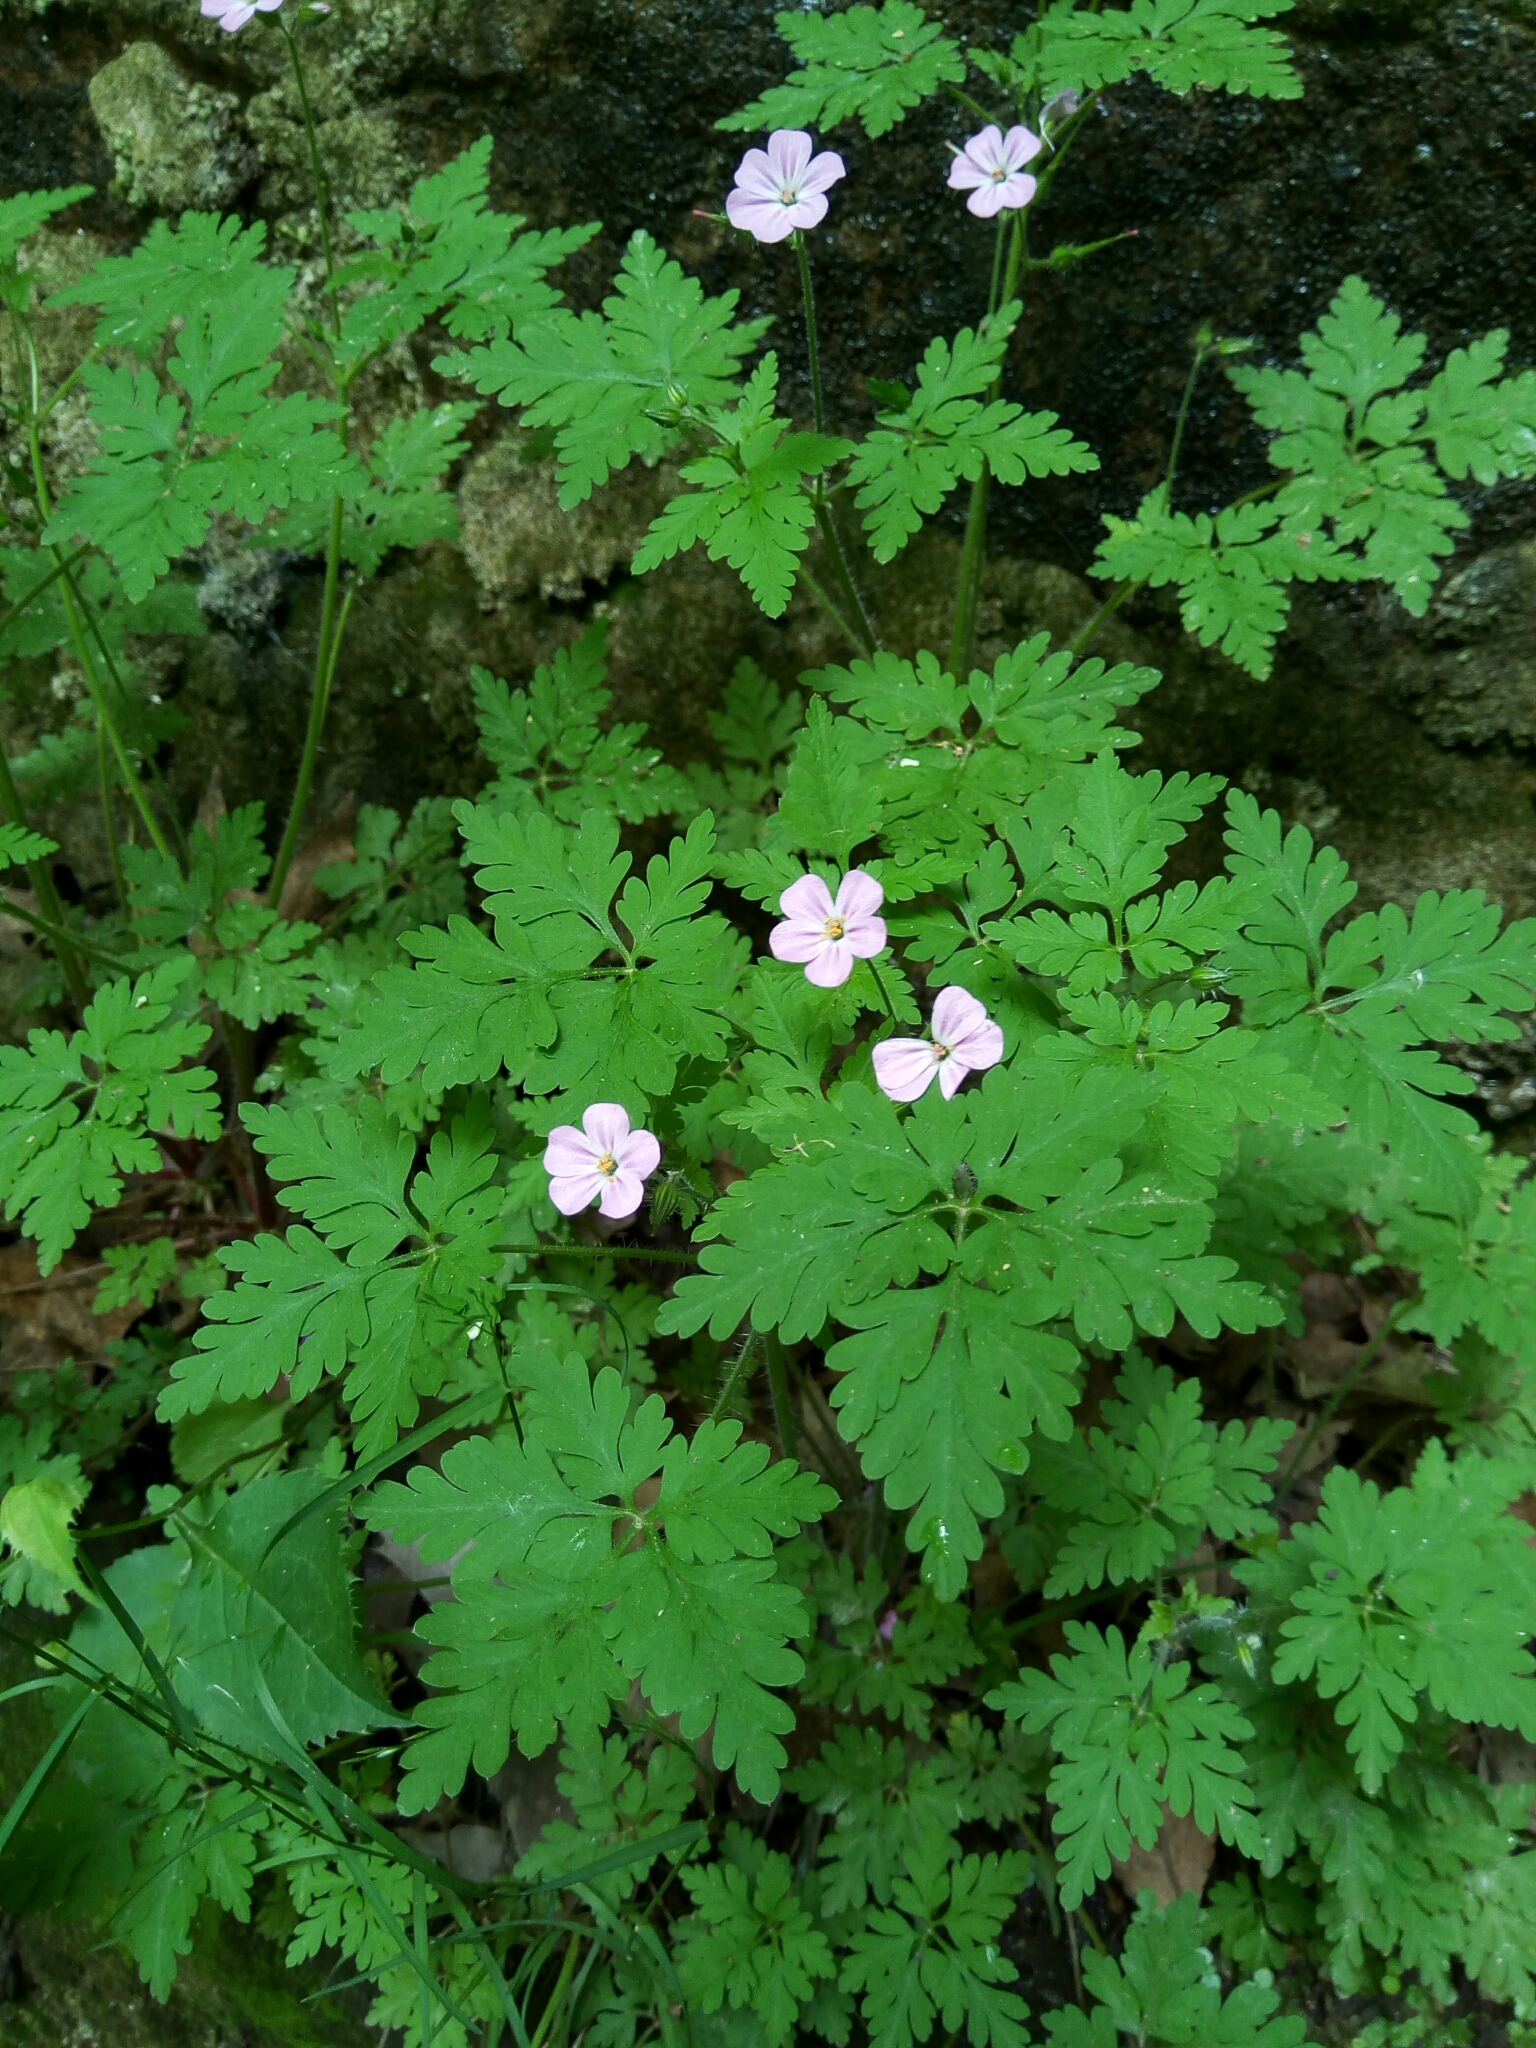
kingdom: Plantae
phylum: Tracheophyta
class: Magnoliopsida
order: Geraniales
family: Geraniaceae
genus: Geranium
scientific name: Geranium robertianum
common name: Herb-robert
